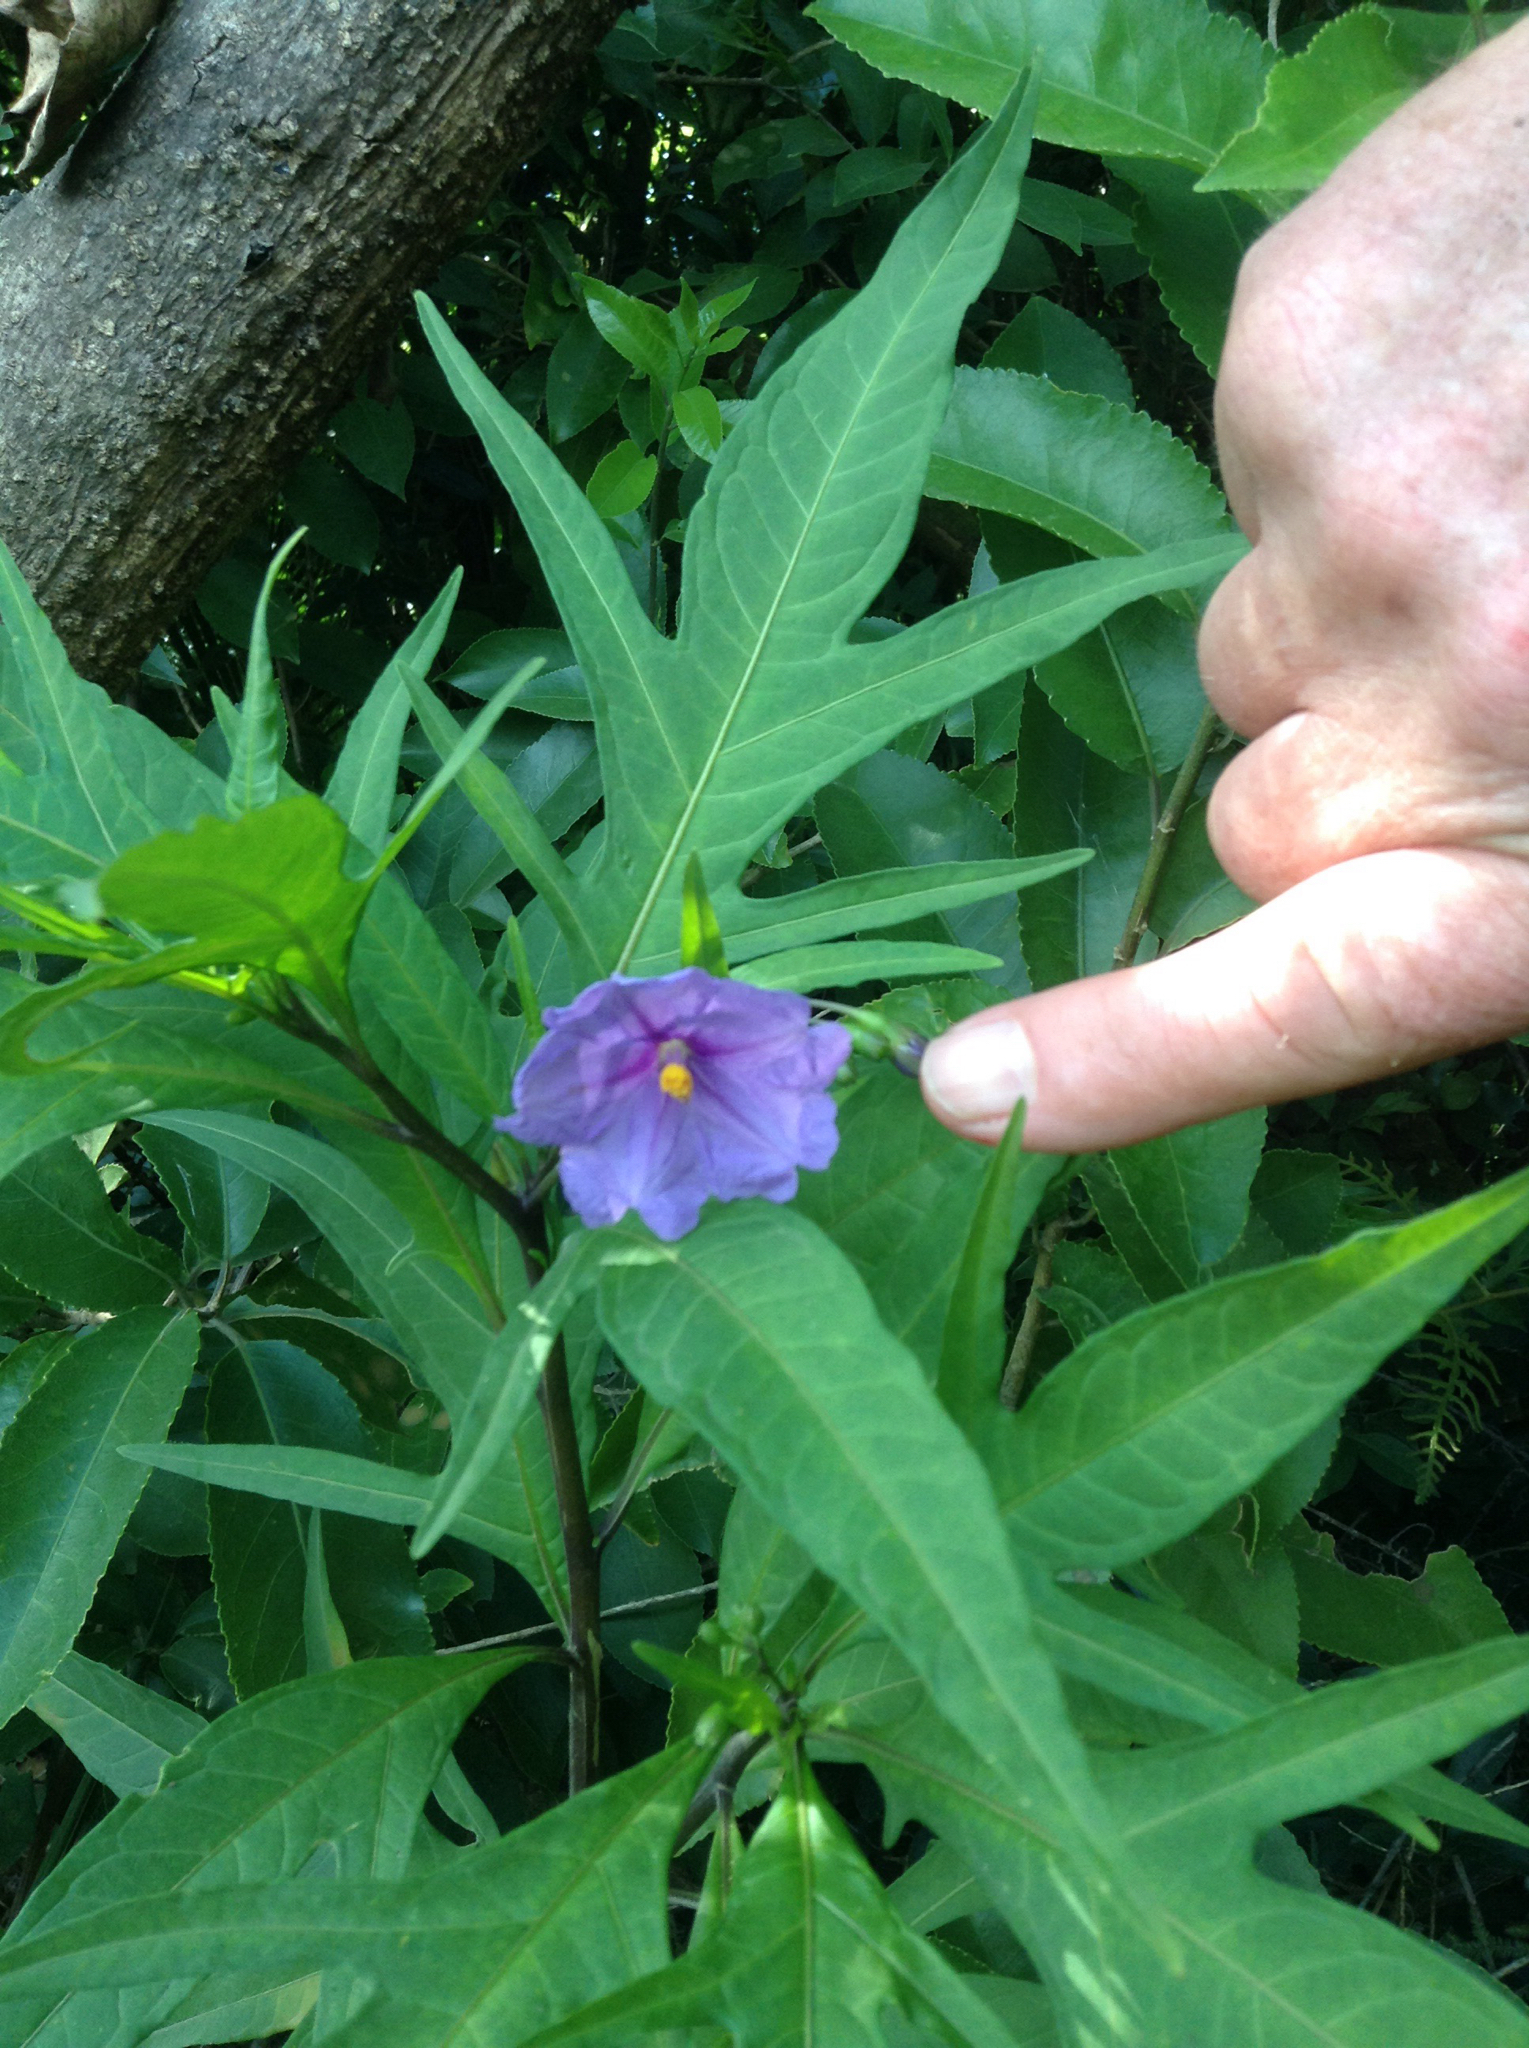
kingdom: Plantae
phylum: Tracheophyta
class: Magnoliopsida
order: Solanales
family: Solanaceae
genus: Solanum
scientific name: Solanum laciniatum
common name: Kangaroo-apple
